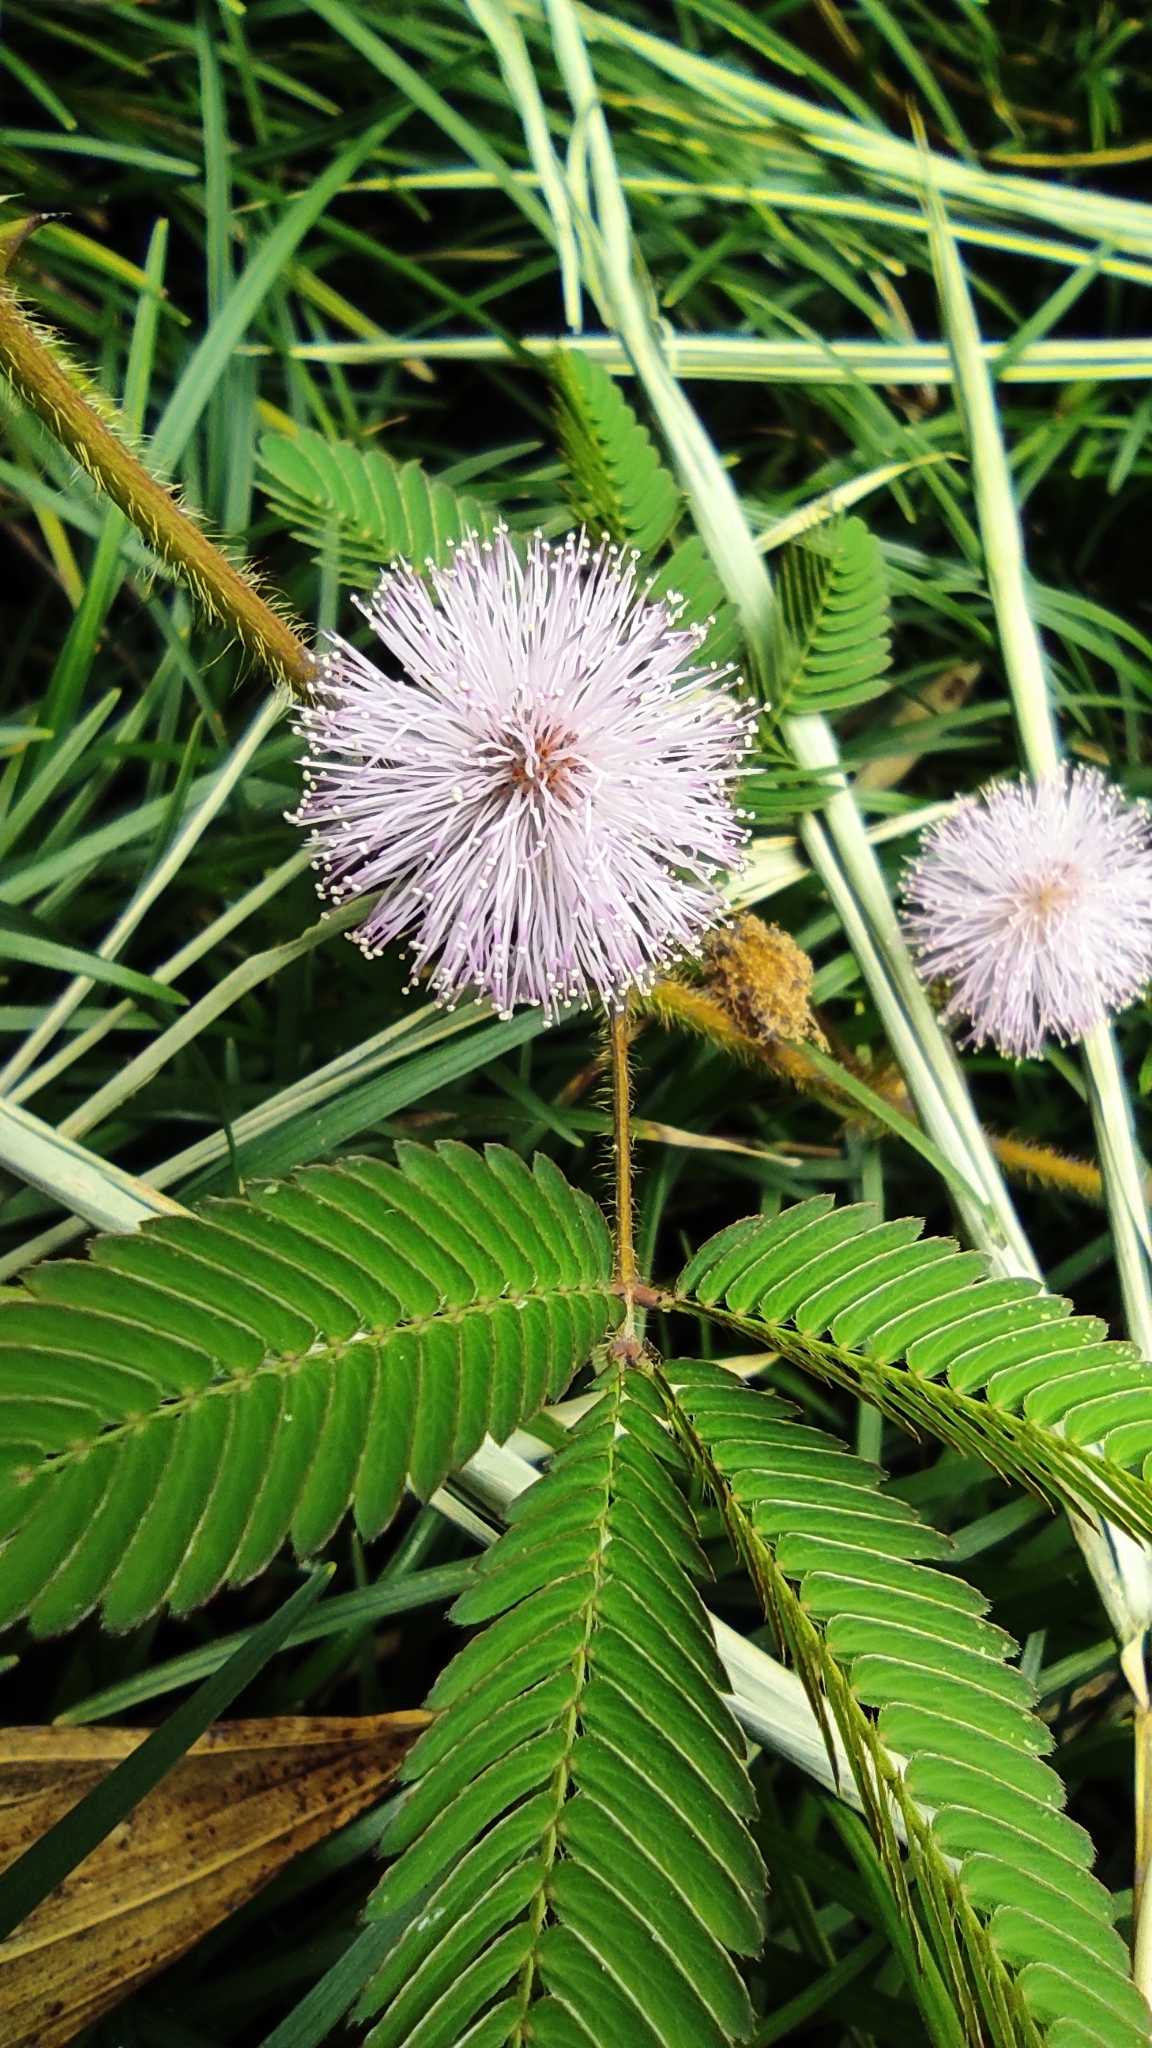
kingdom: Plantae
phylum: Tracheophyta
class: Magnoliopsida
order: Fabales
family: Fabaceae
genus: Mimosa
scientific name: Mimosa pudica
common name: Sensitive plant
